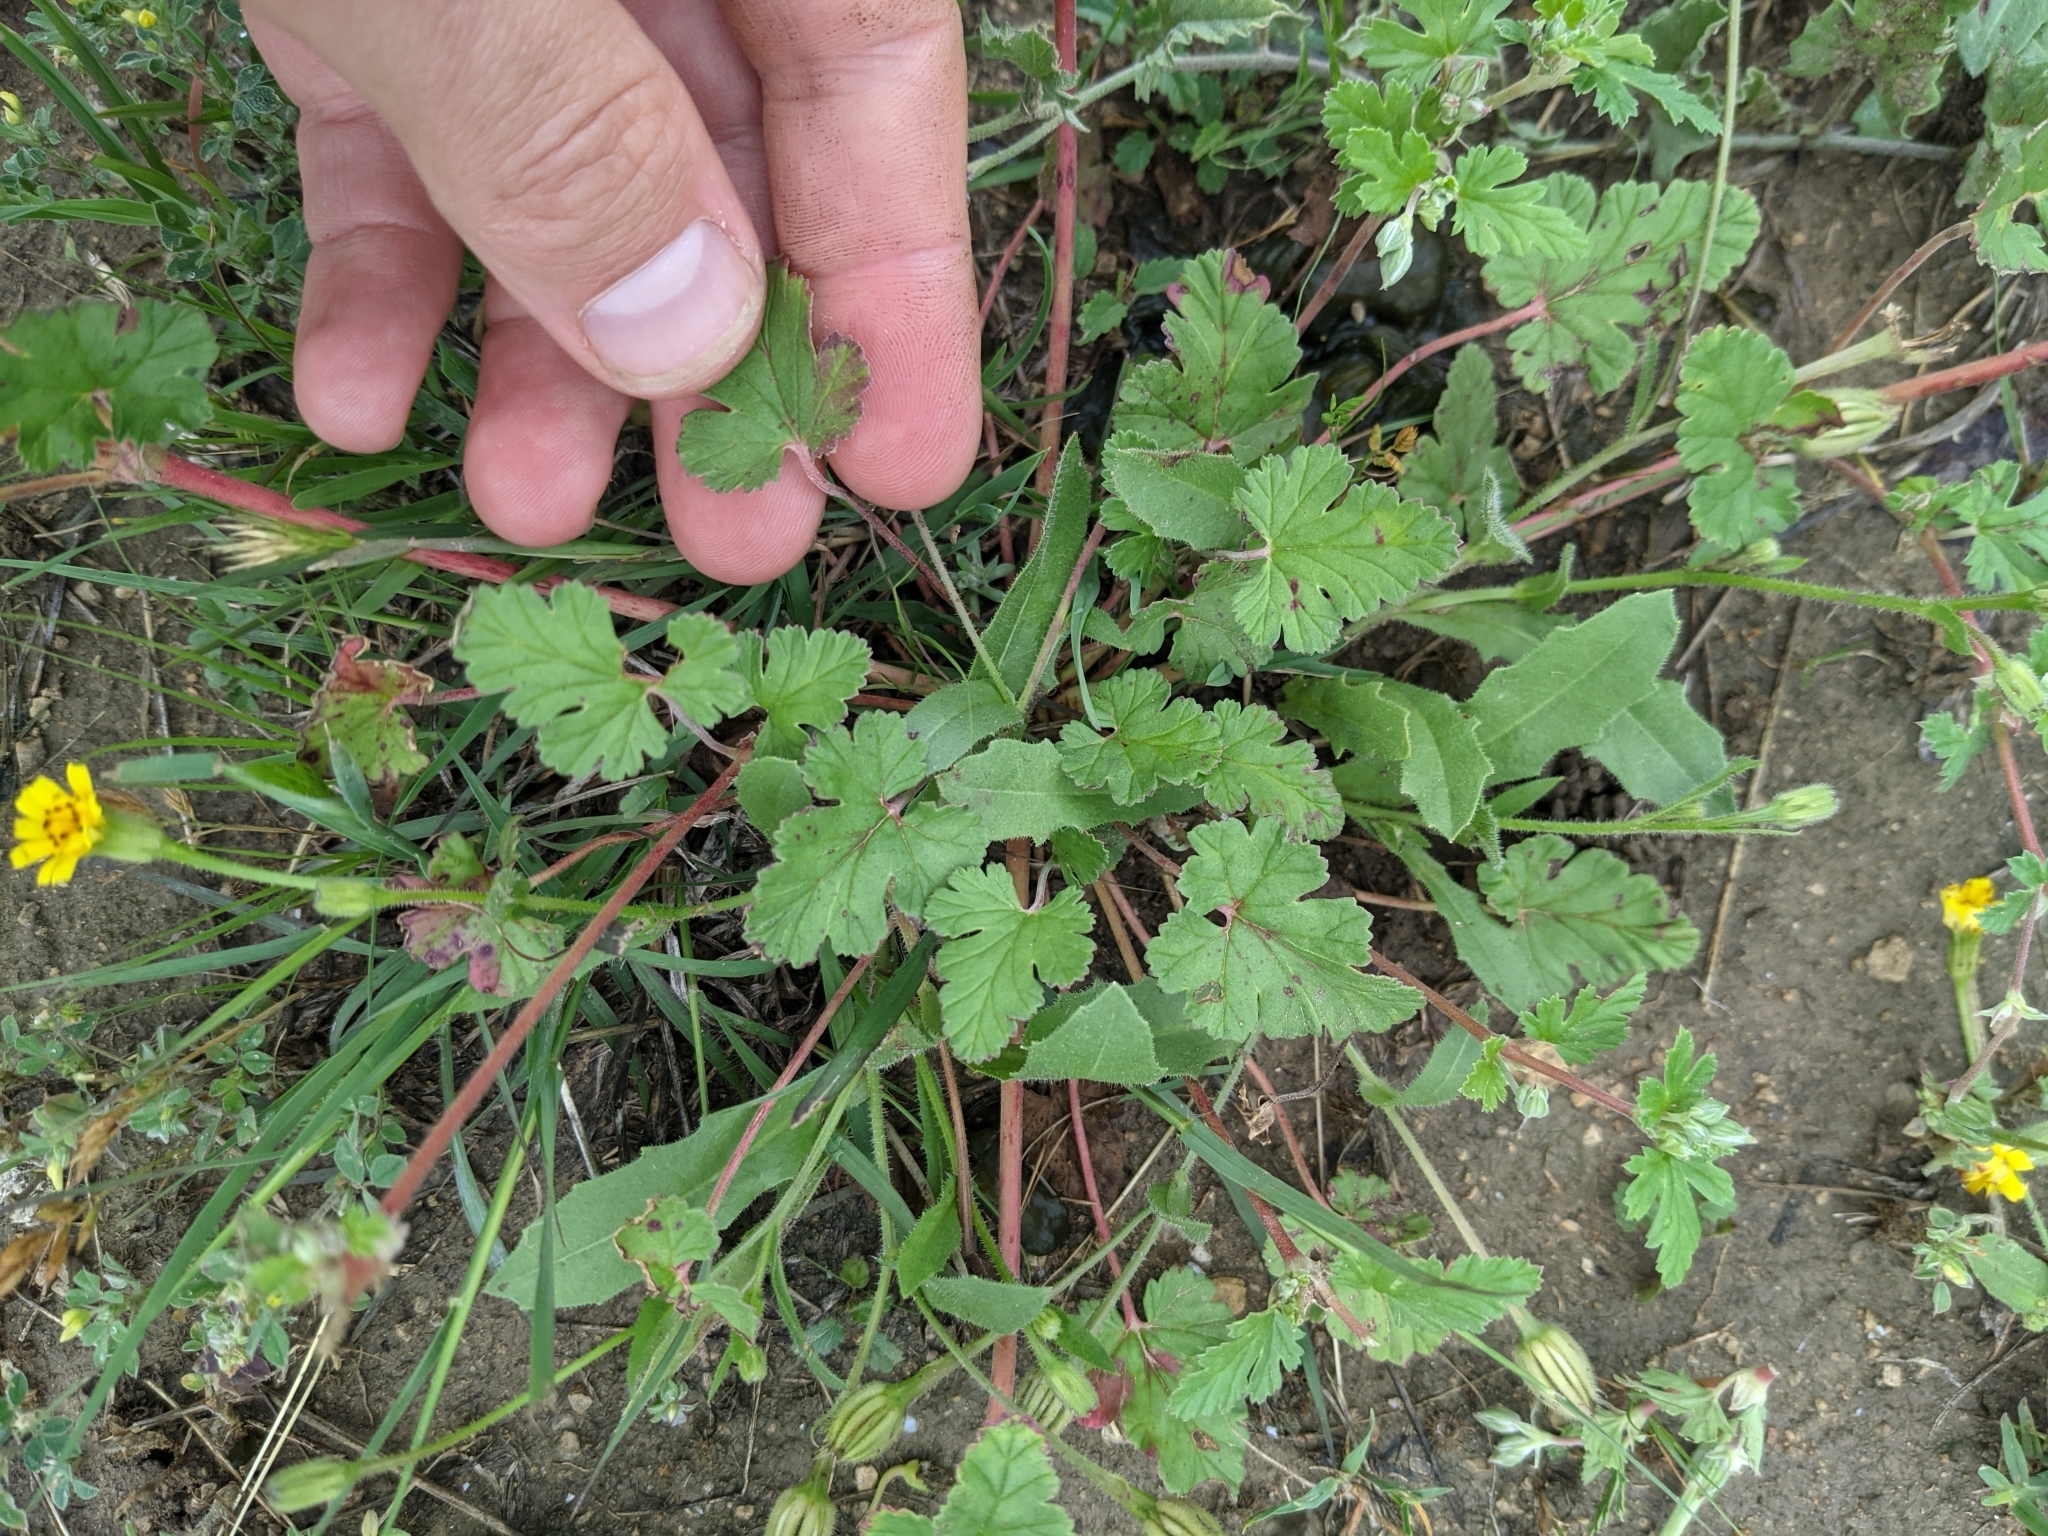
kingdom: Plantae
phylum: Tracheophyta
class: Magnoliopsida
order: Geraniales
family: Geraniaceae
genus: Erodium
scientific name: Erodium texanum
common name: Texas stork's-bill
